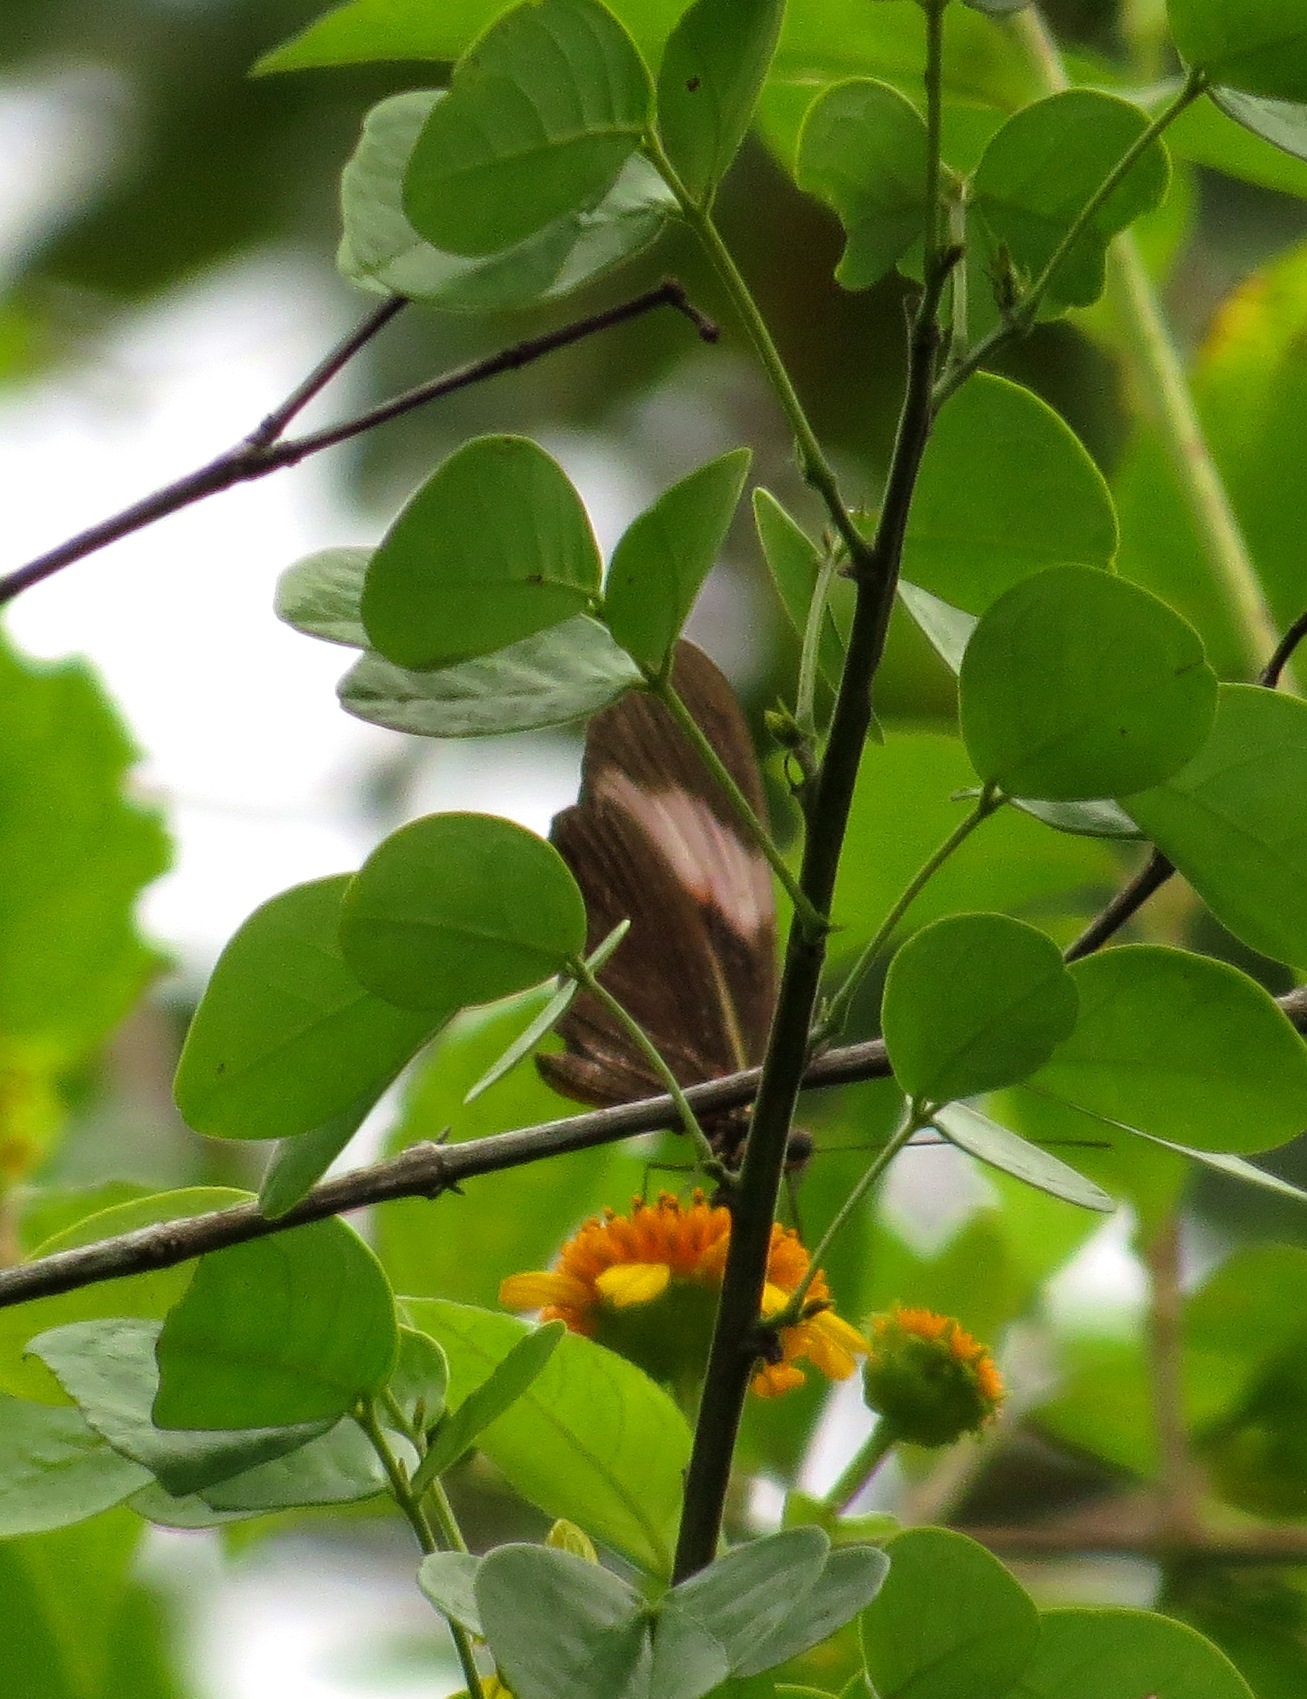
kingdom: Animalia
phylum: Arthropoda
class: Insecta
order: Lepidoptera
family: Nymphalidae
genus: Heliconius
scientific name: Heliconius erato
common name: Common patch longwing
